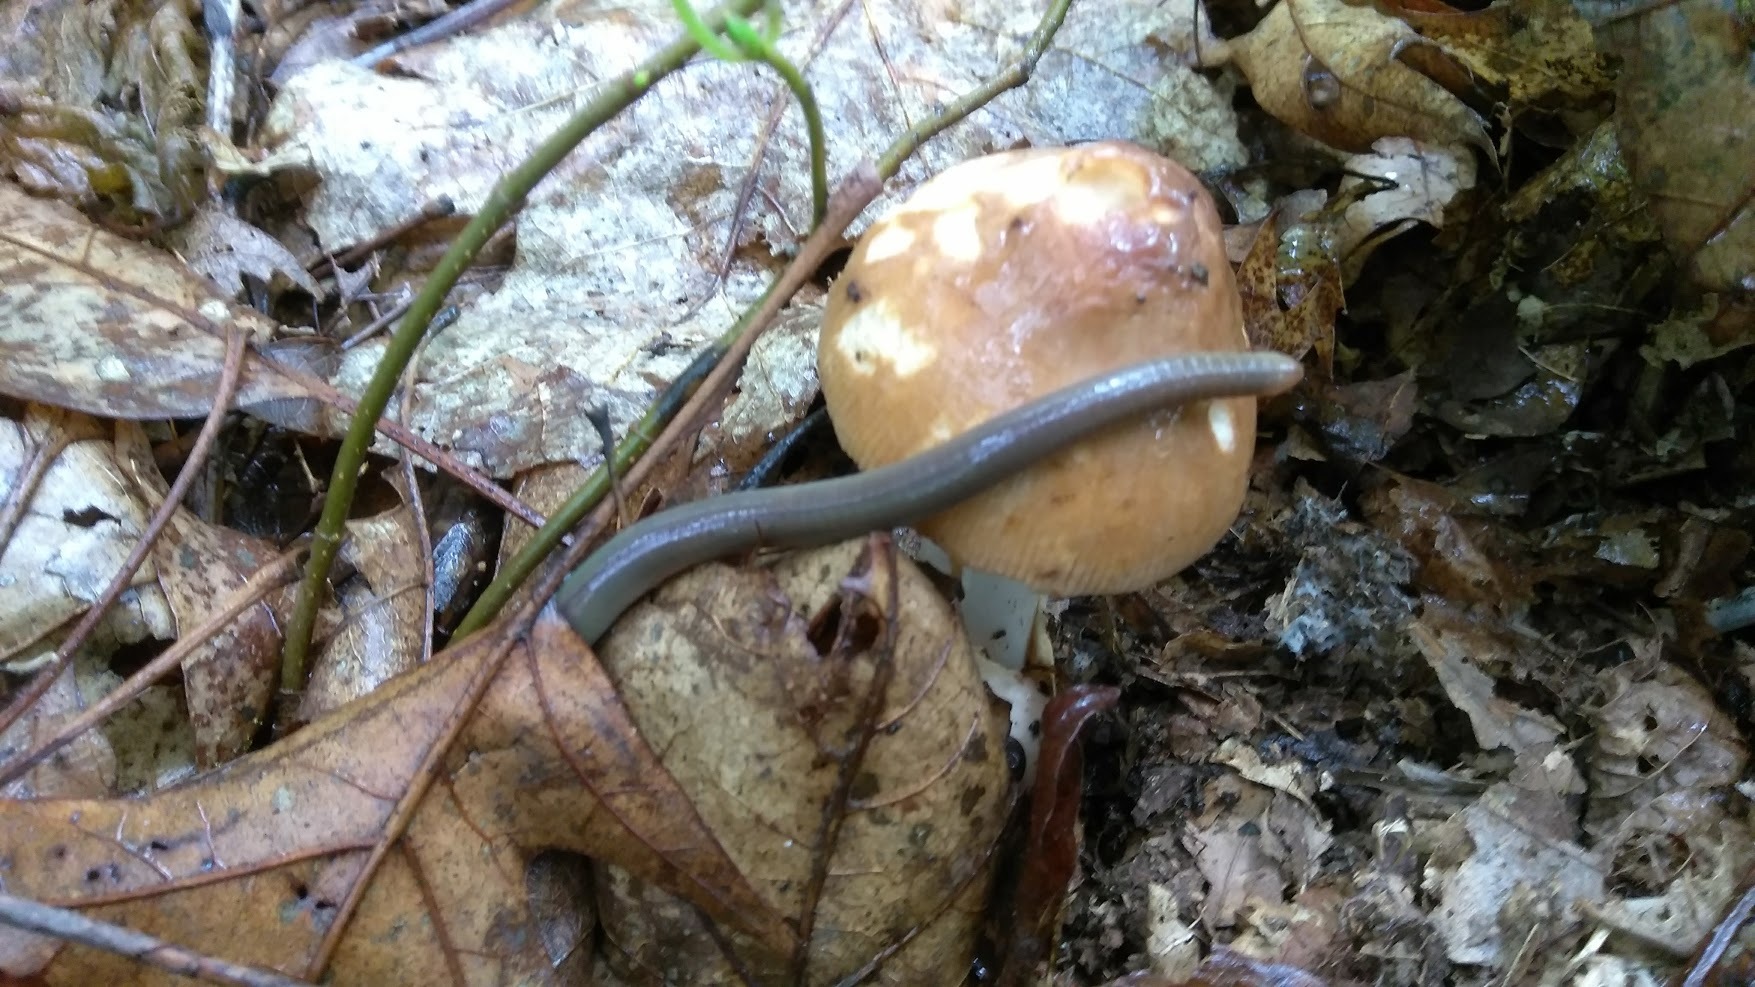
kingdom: Animalia
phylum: Annelida
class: Clitellata
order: Crassiclitellata
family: Megascolecidae
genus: Amynthas
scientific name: Amynthas
